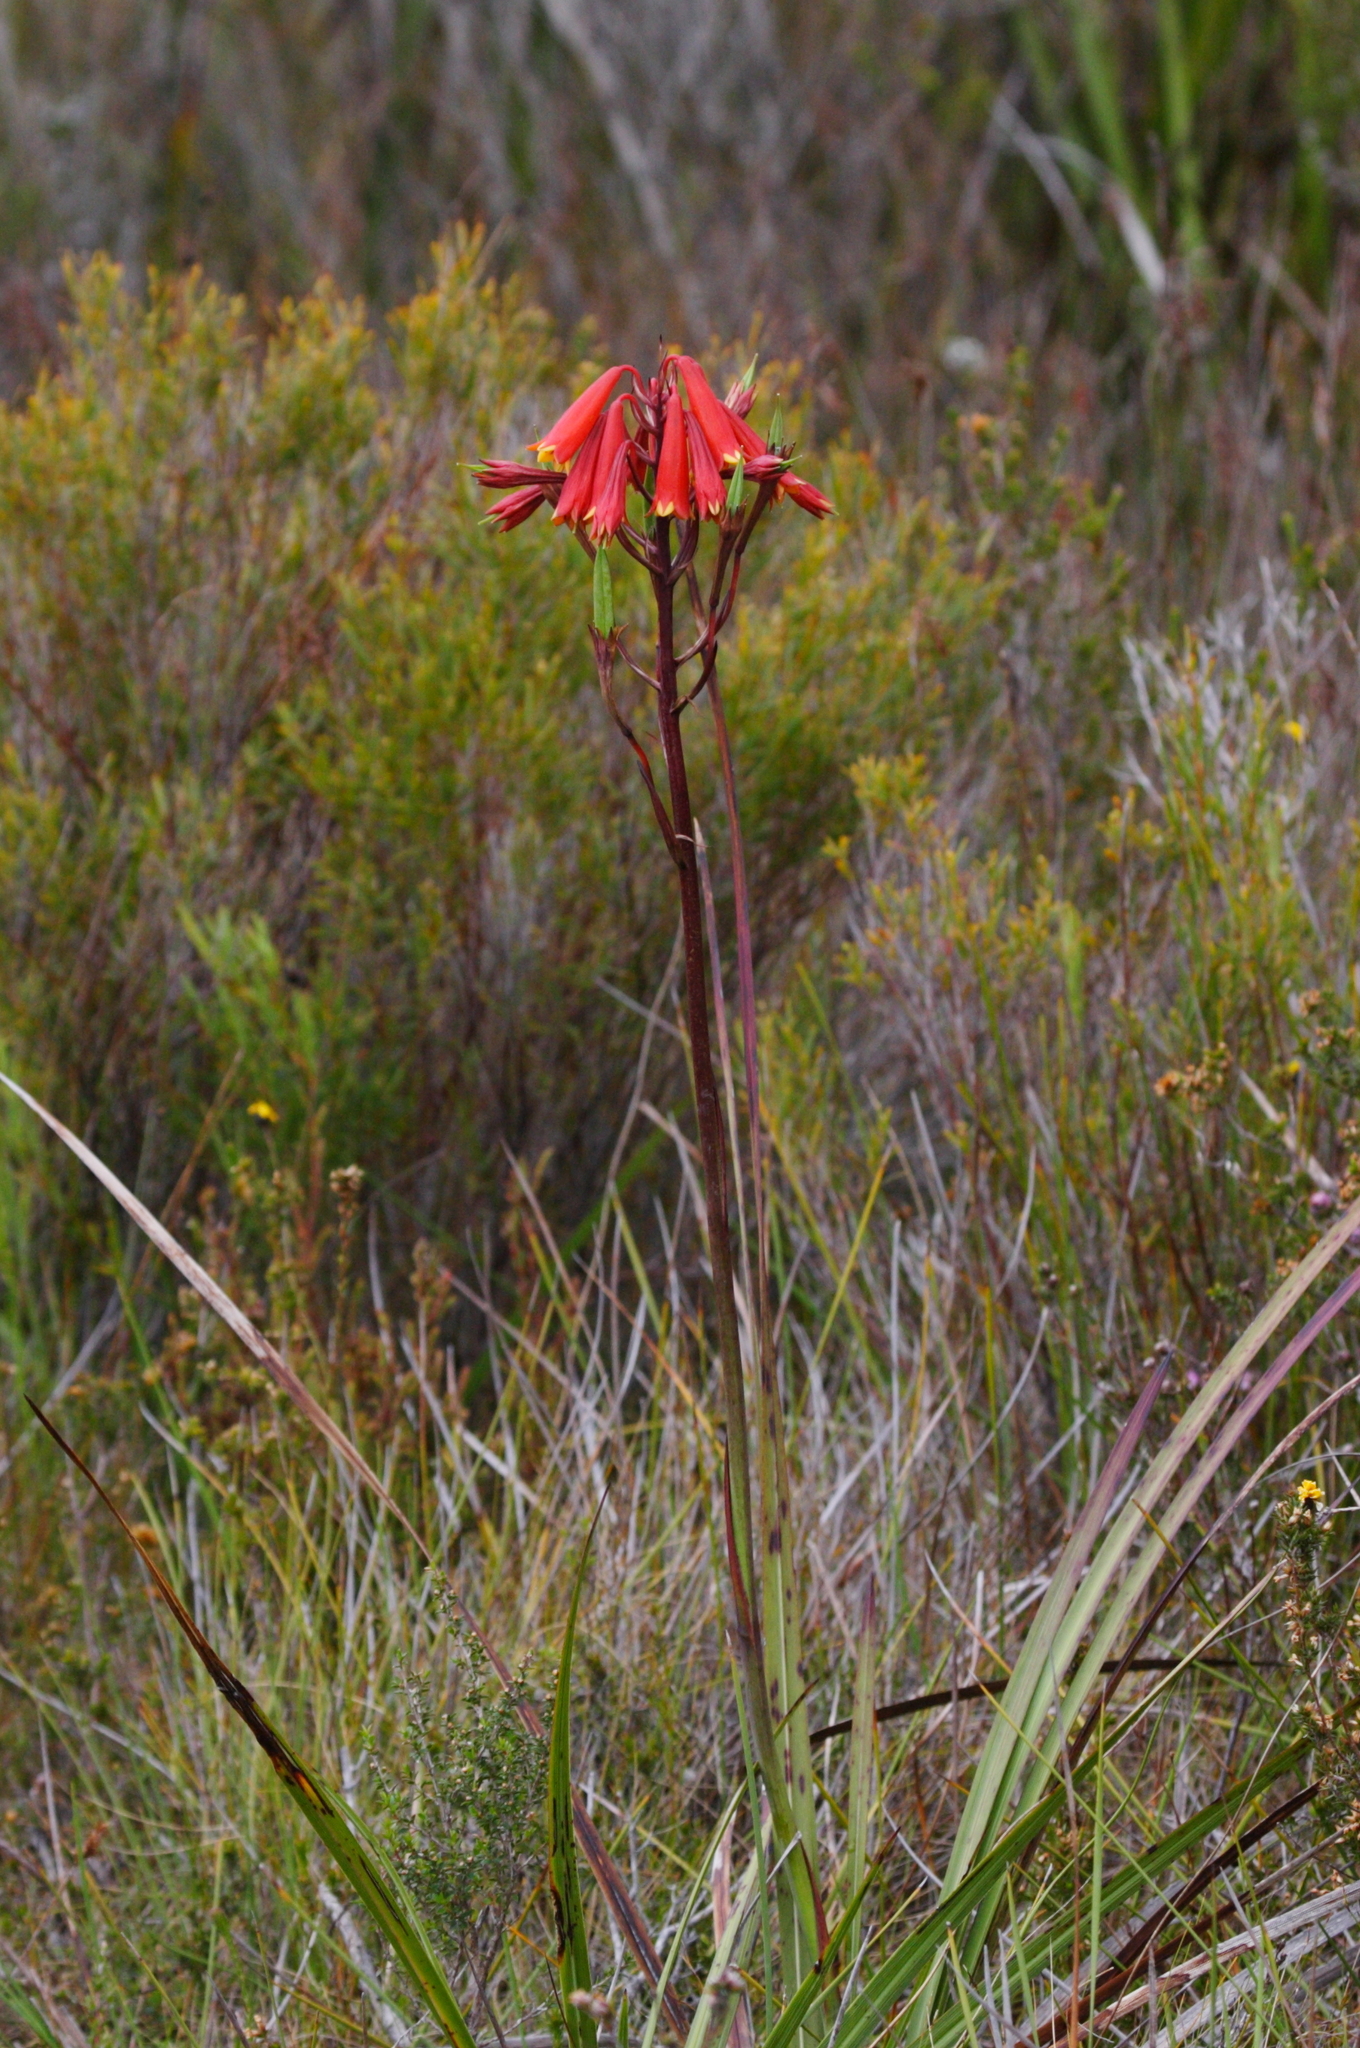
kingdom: Plantae
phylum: Tracheophyta
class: Liliopsida
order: Asparagales
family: Blandfordiaceae
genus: Blandfordia
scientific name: Blandfordia punicea
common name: Tasmanian christmas-bell
